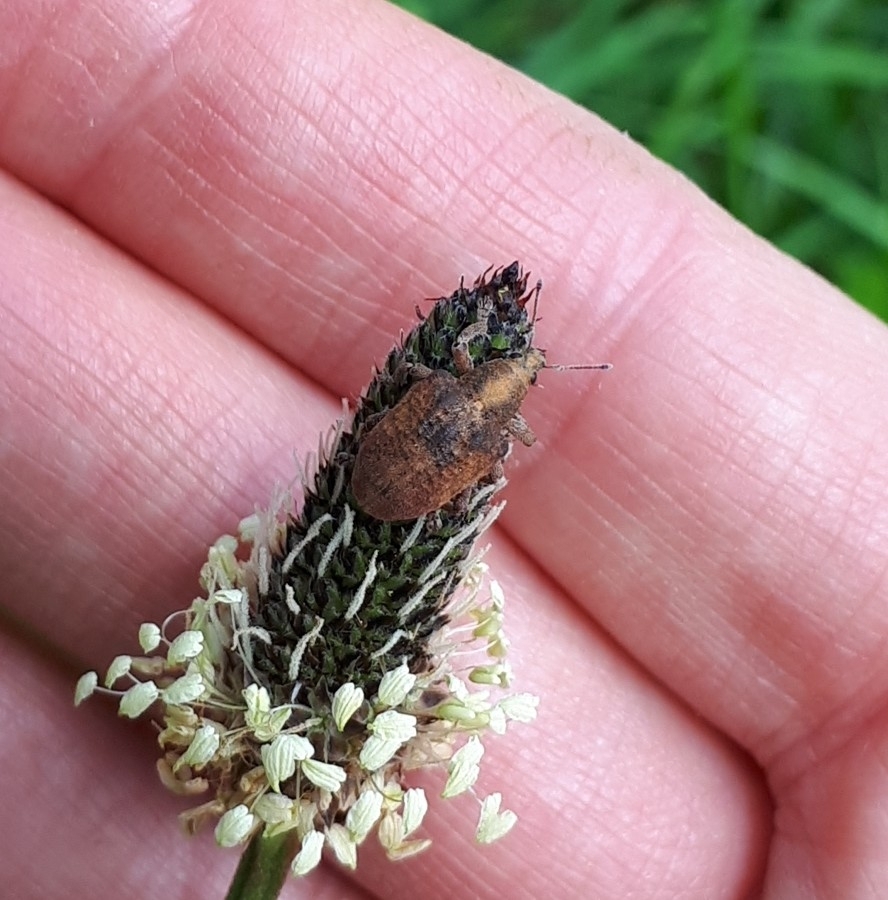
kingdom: Animalia
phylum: Arthropoda
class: Insecta
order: Coleoptera
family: Curculionidae
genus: Gonipterus
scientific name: Gonipterus platensis
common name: Eucalyptus snout beetle
